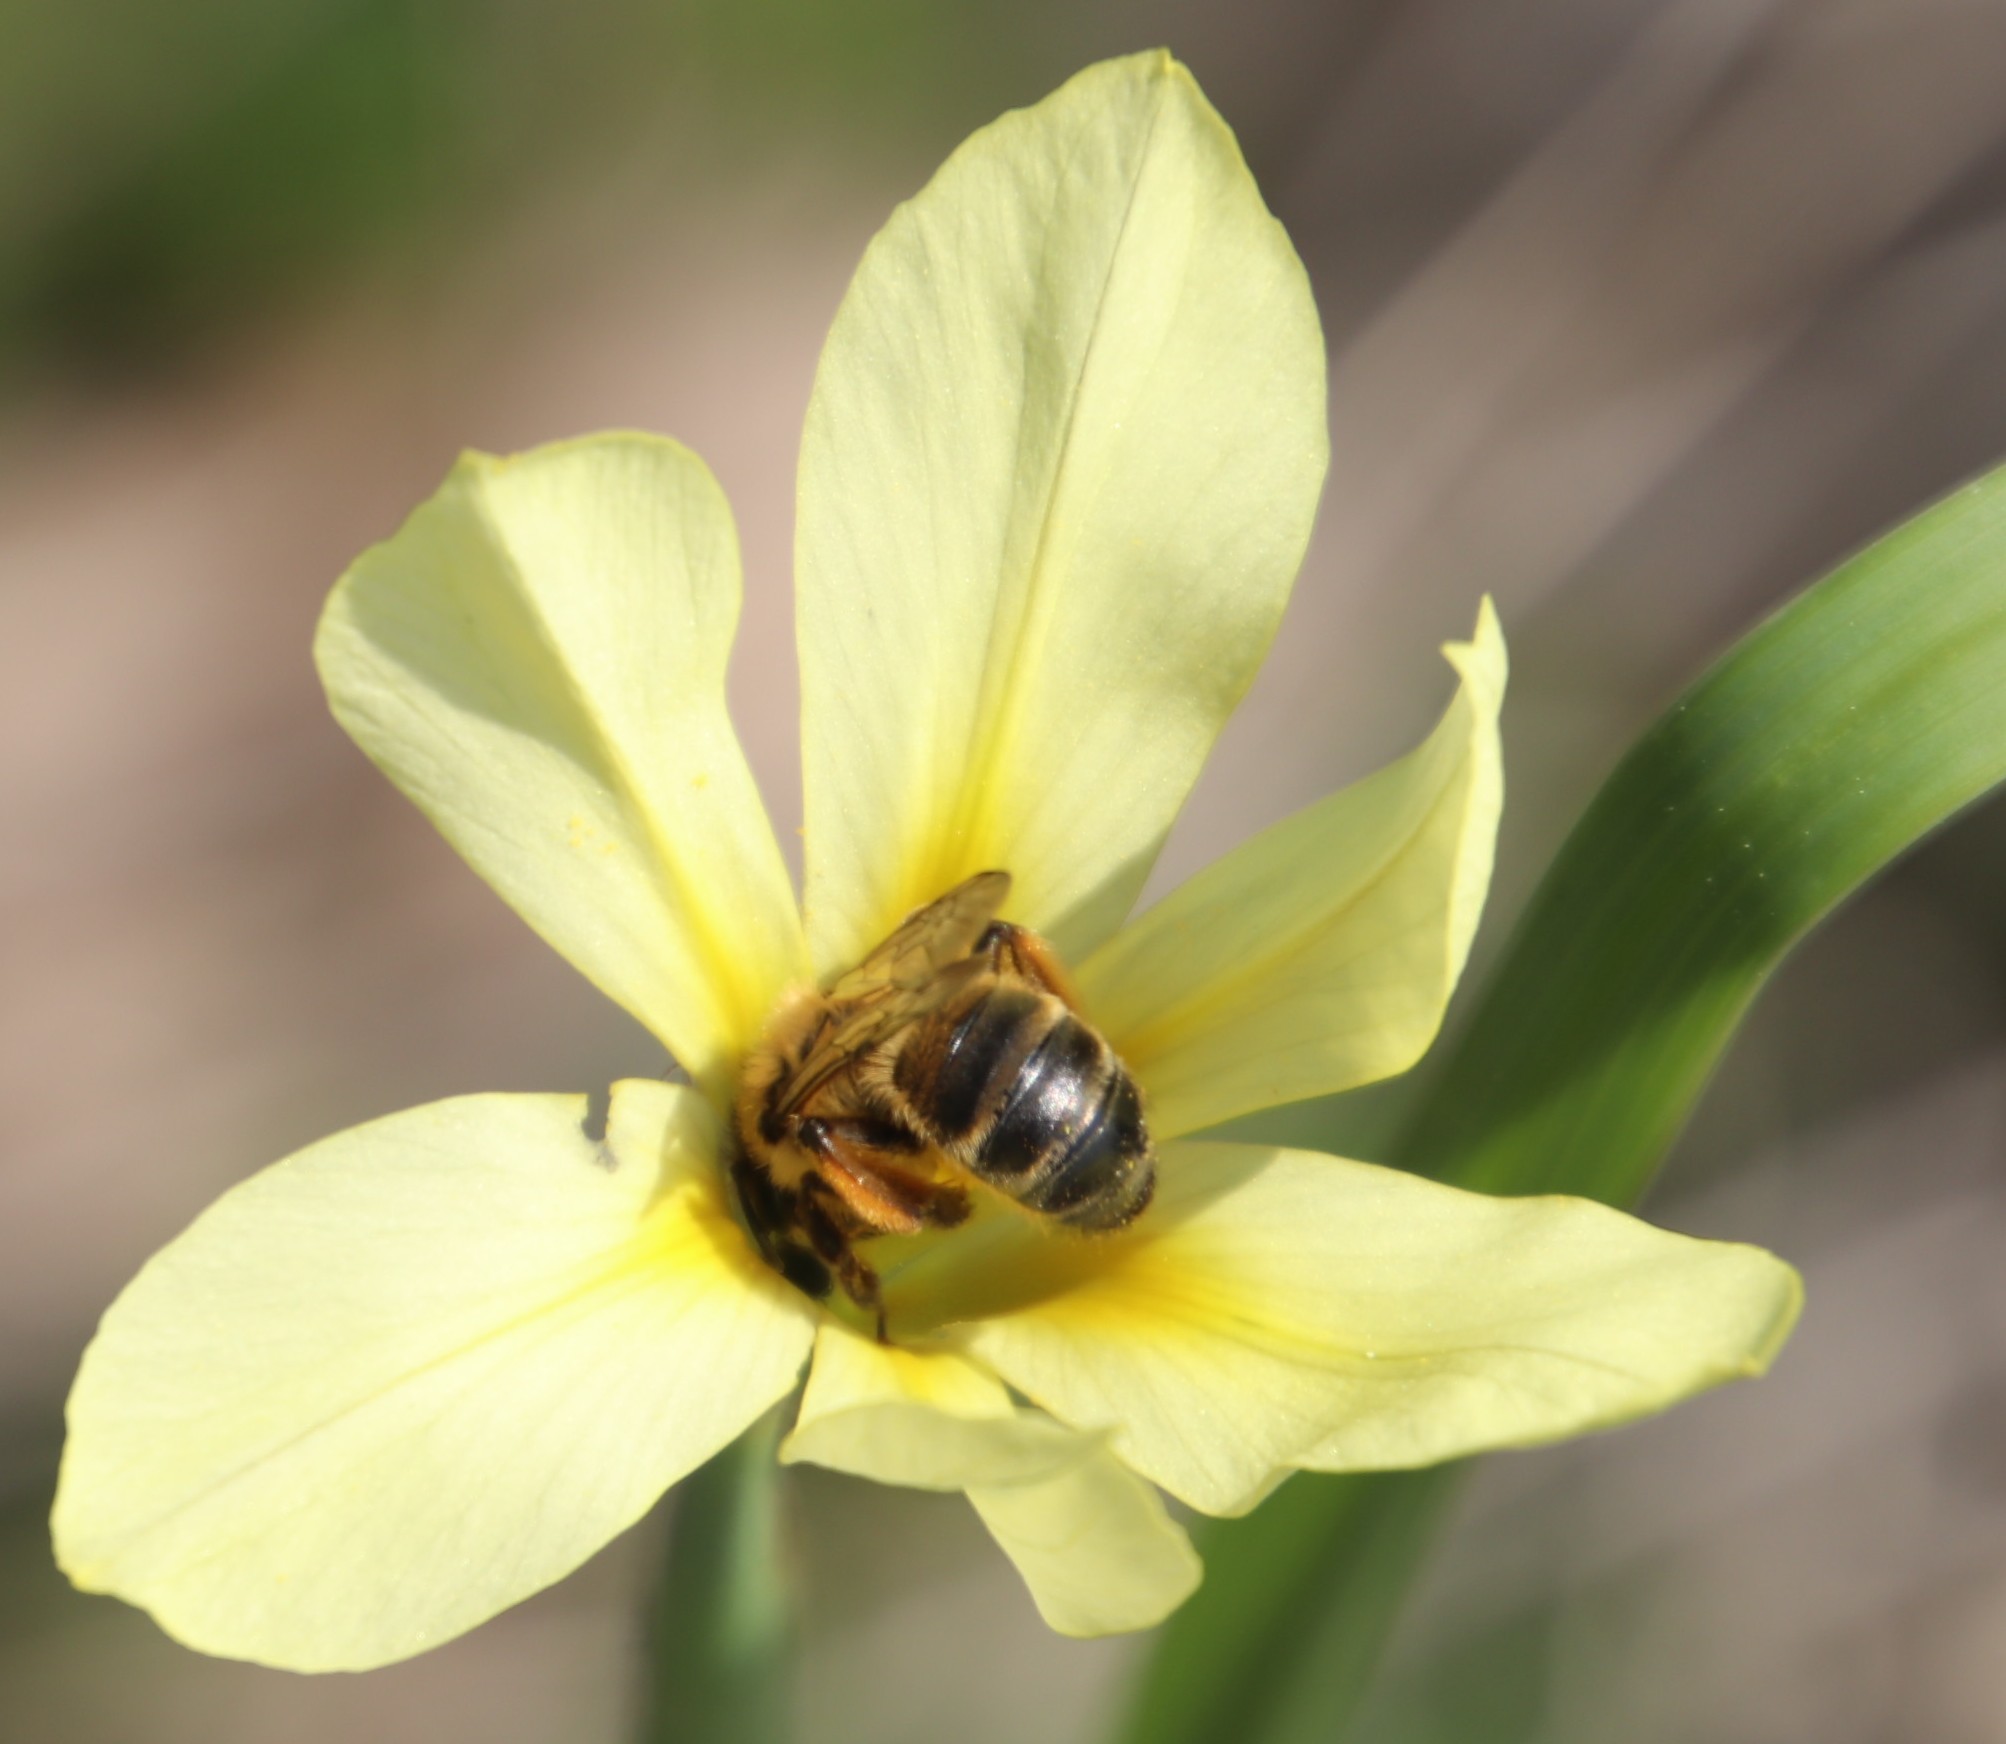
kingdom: Plantae
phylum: Tracheophyta
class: Liliopsida
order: Asparagales
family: Iridaceae
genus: Moraea
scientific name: Moraea collina
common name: Cape-tulip
